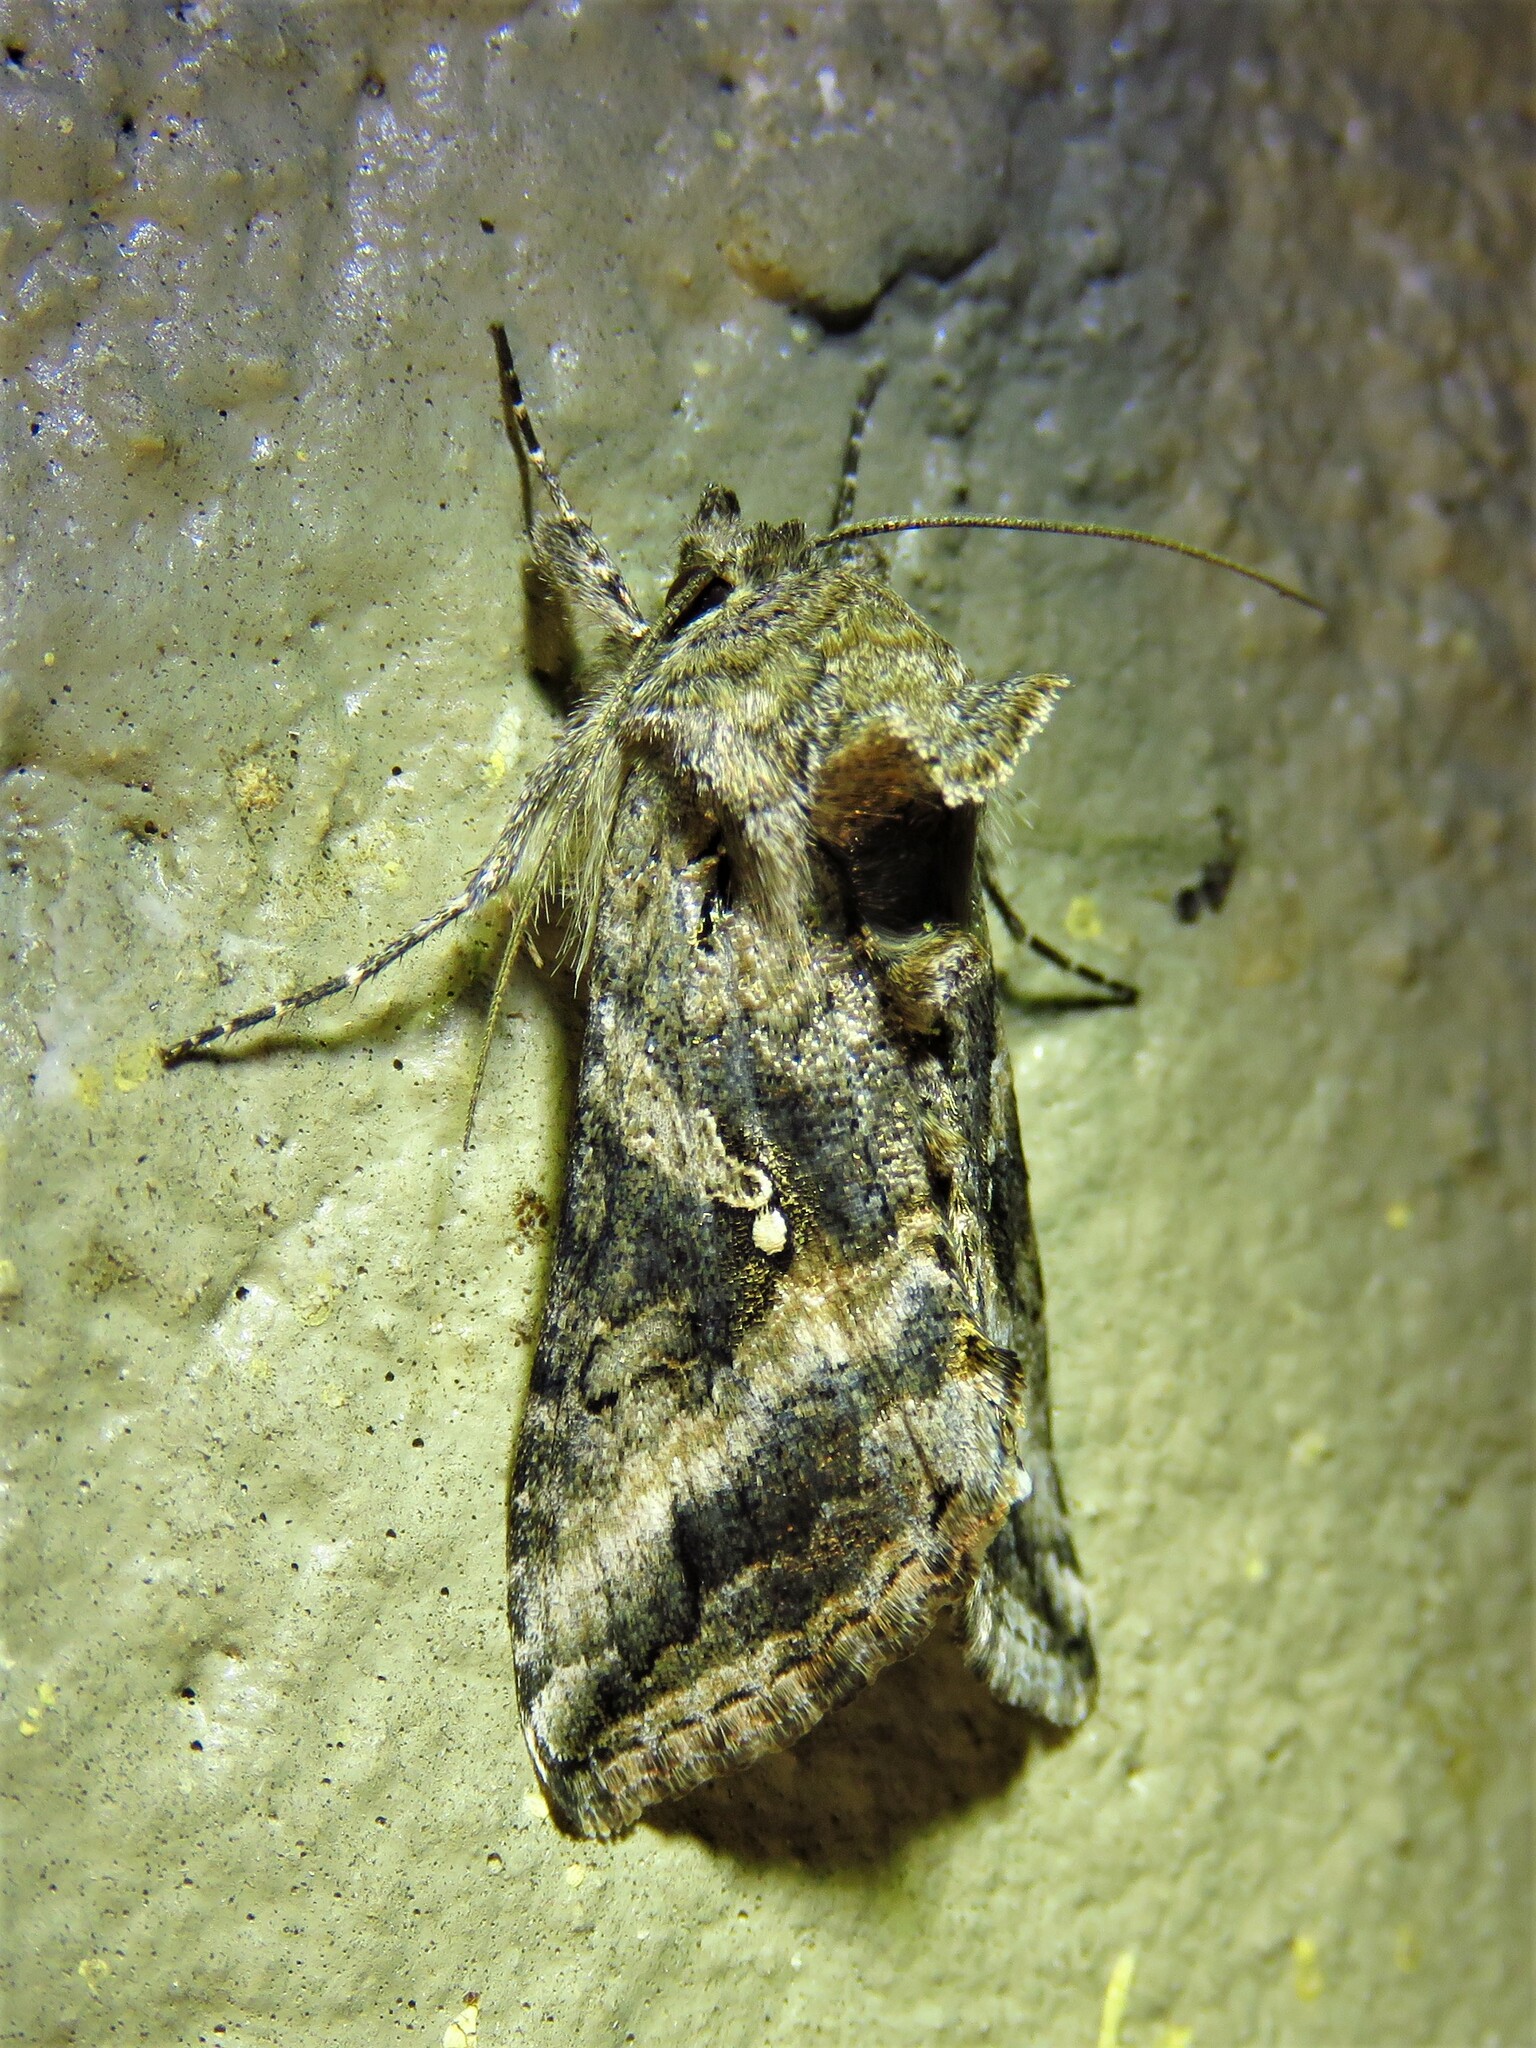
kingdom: Animalia
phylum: Arthropoda
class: Insecta
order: Lepidoptera
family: Noctuidae
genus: Rachiplusia
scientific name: Rachiplusia ou
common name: Gray looper moth
